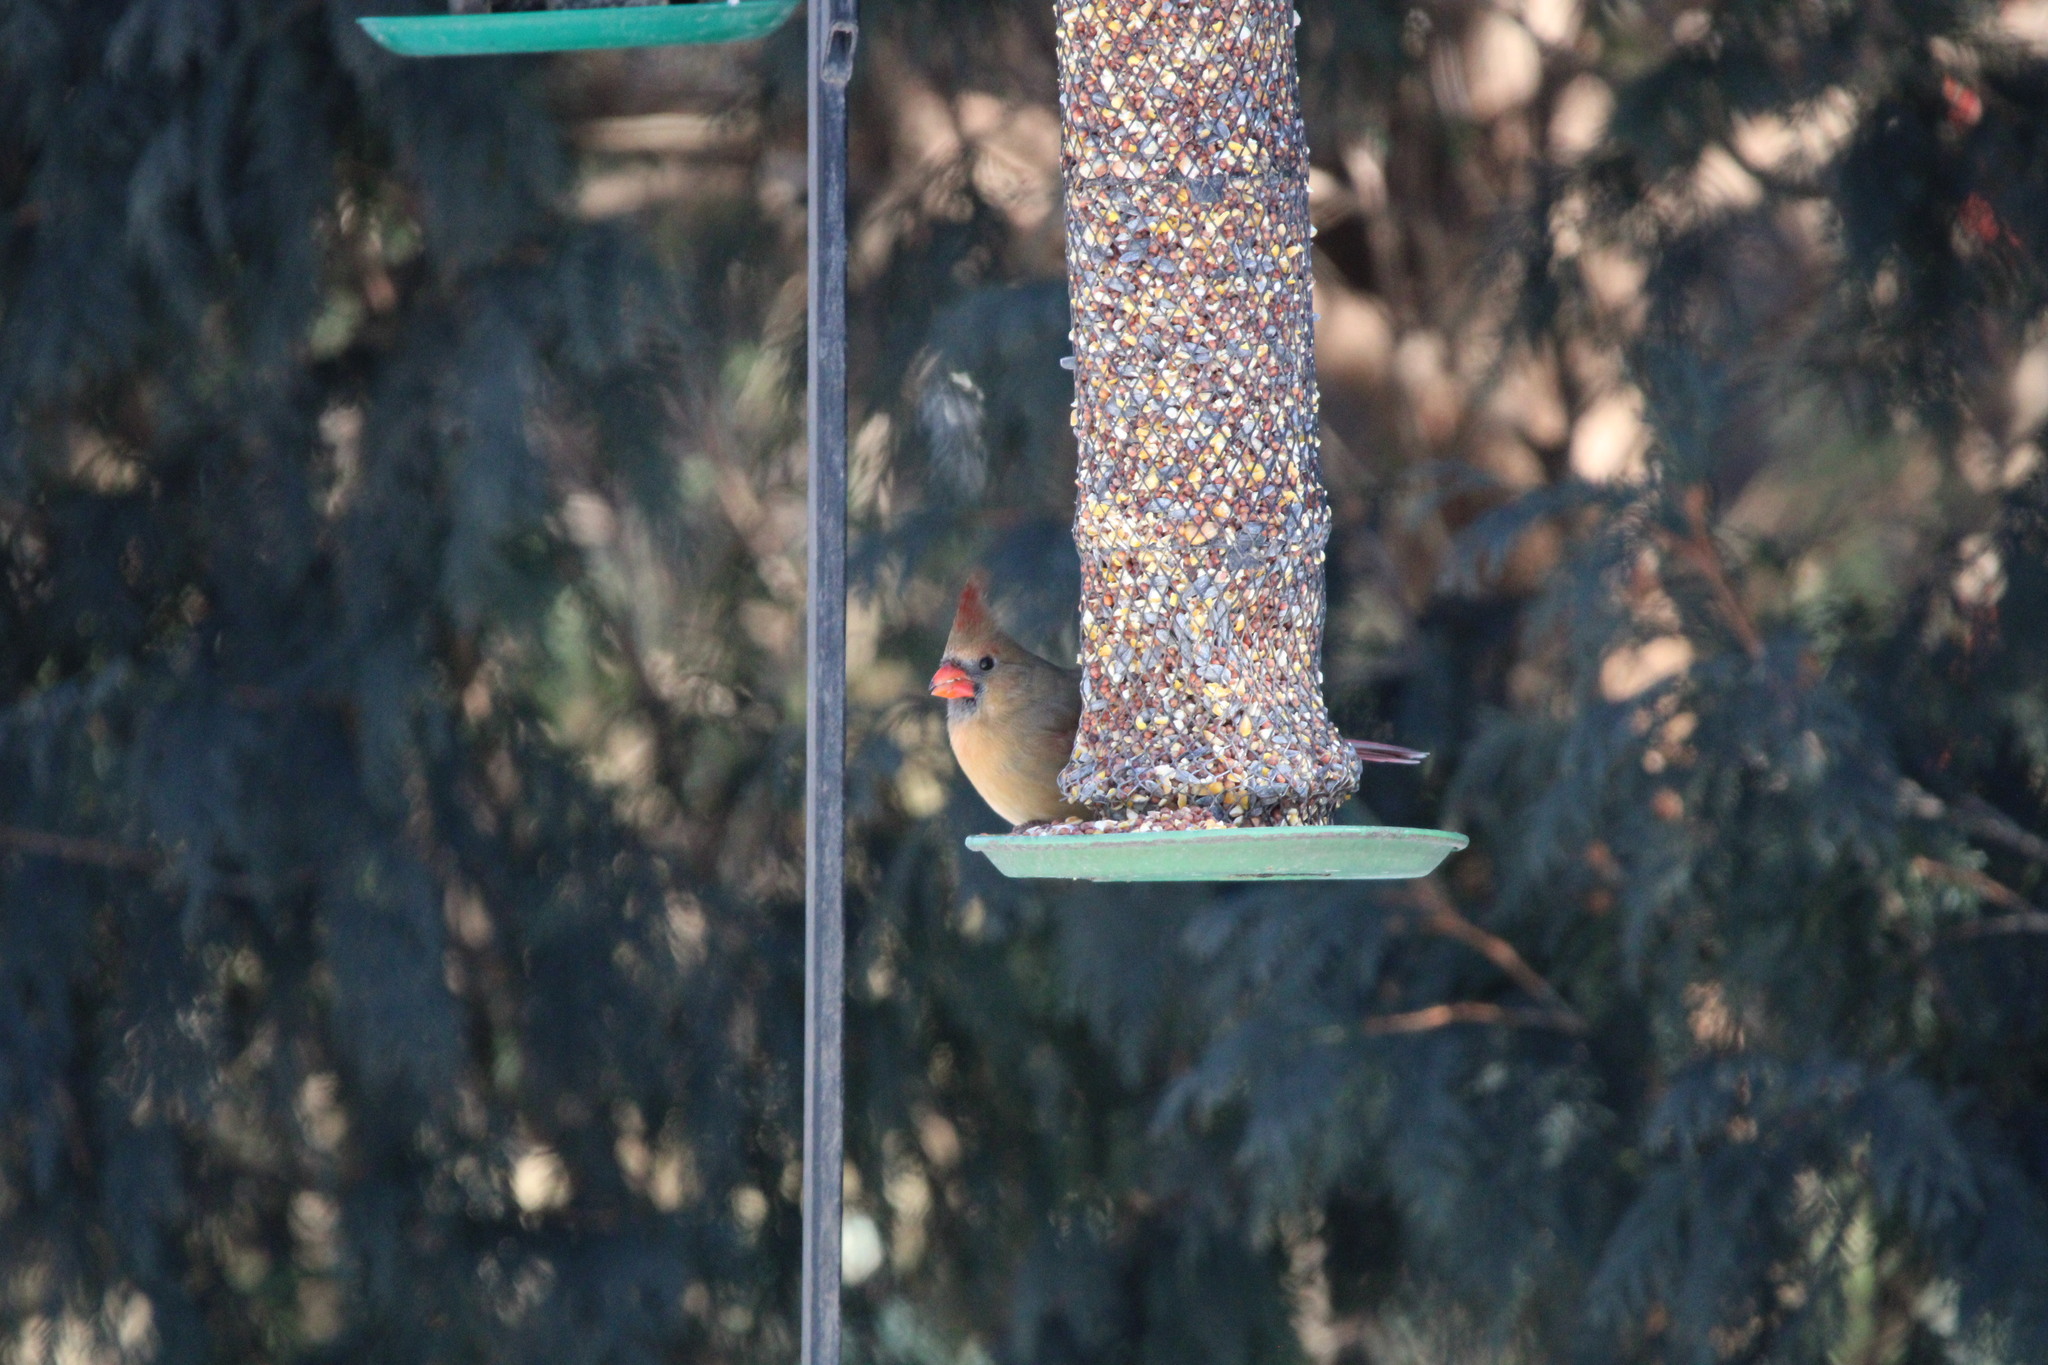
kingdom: Animalia
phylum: Chordata
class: Aves
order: Passeriformes
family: Cardinalidae
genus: Cardinalis
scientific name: Cardinalis cardinalis
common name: Northern cardinal
